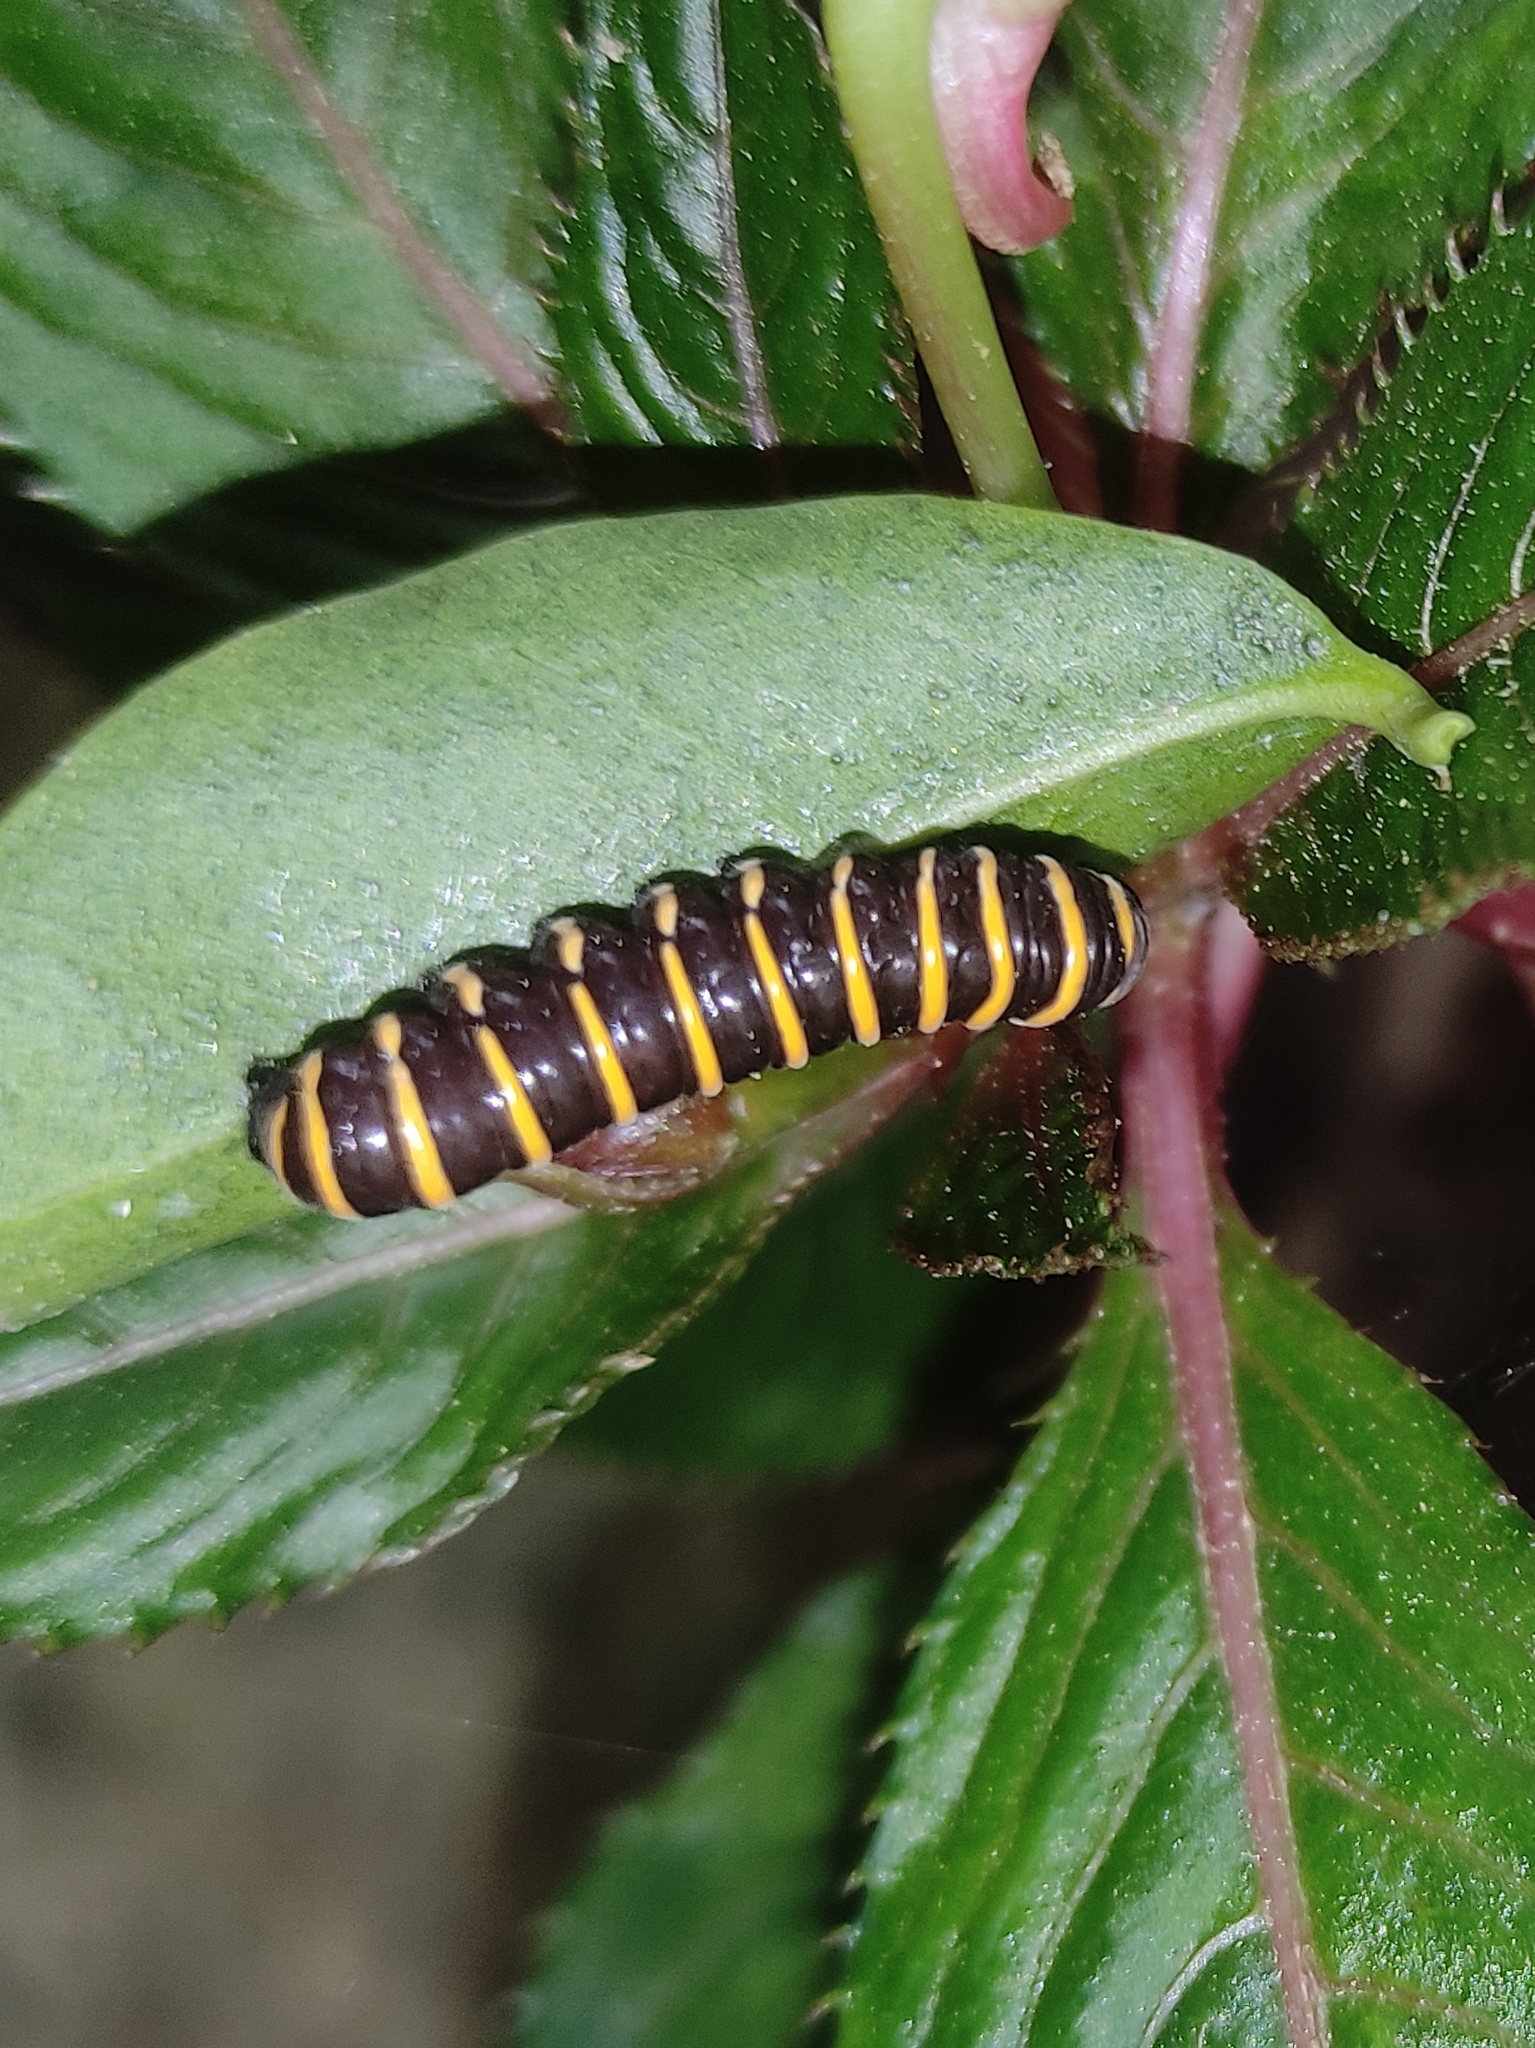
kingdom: Animalia
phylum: Arthropoda
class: Insecta
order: Lepidoptera
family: Nymphalidae
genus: Methona
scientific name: Methona themisto
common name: Themisto amberwing
